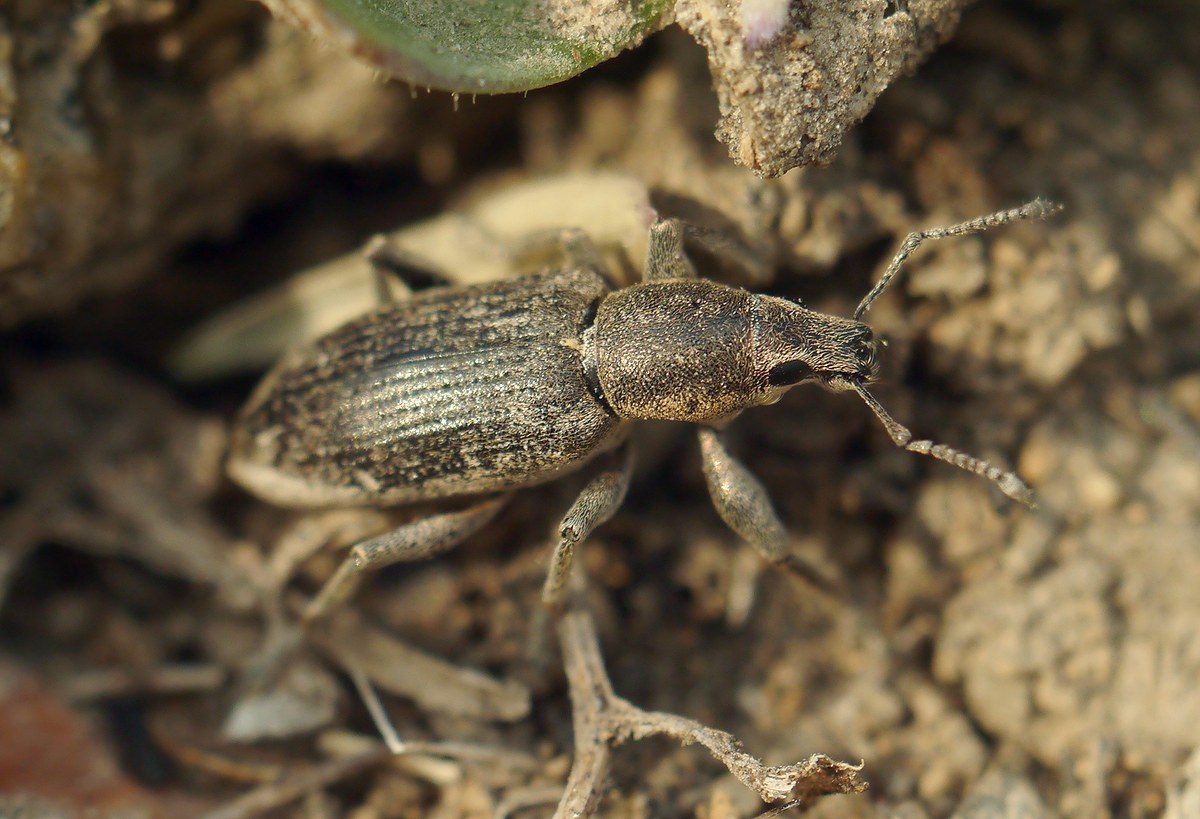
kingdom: Animalia
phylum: Arthropoda
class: Insecta
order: Coleoptera
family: Curculionidae
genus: Tanymecus
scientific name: Tanymecus palliatus
